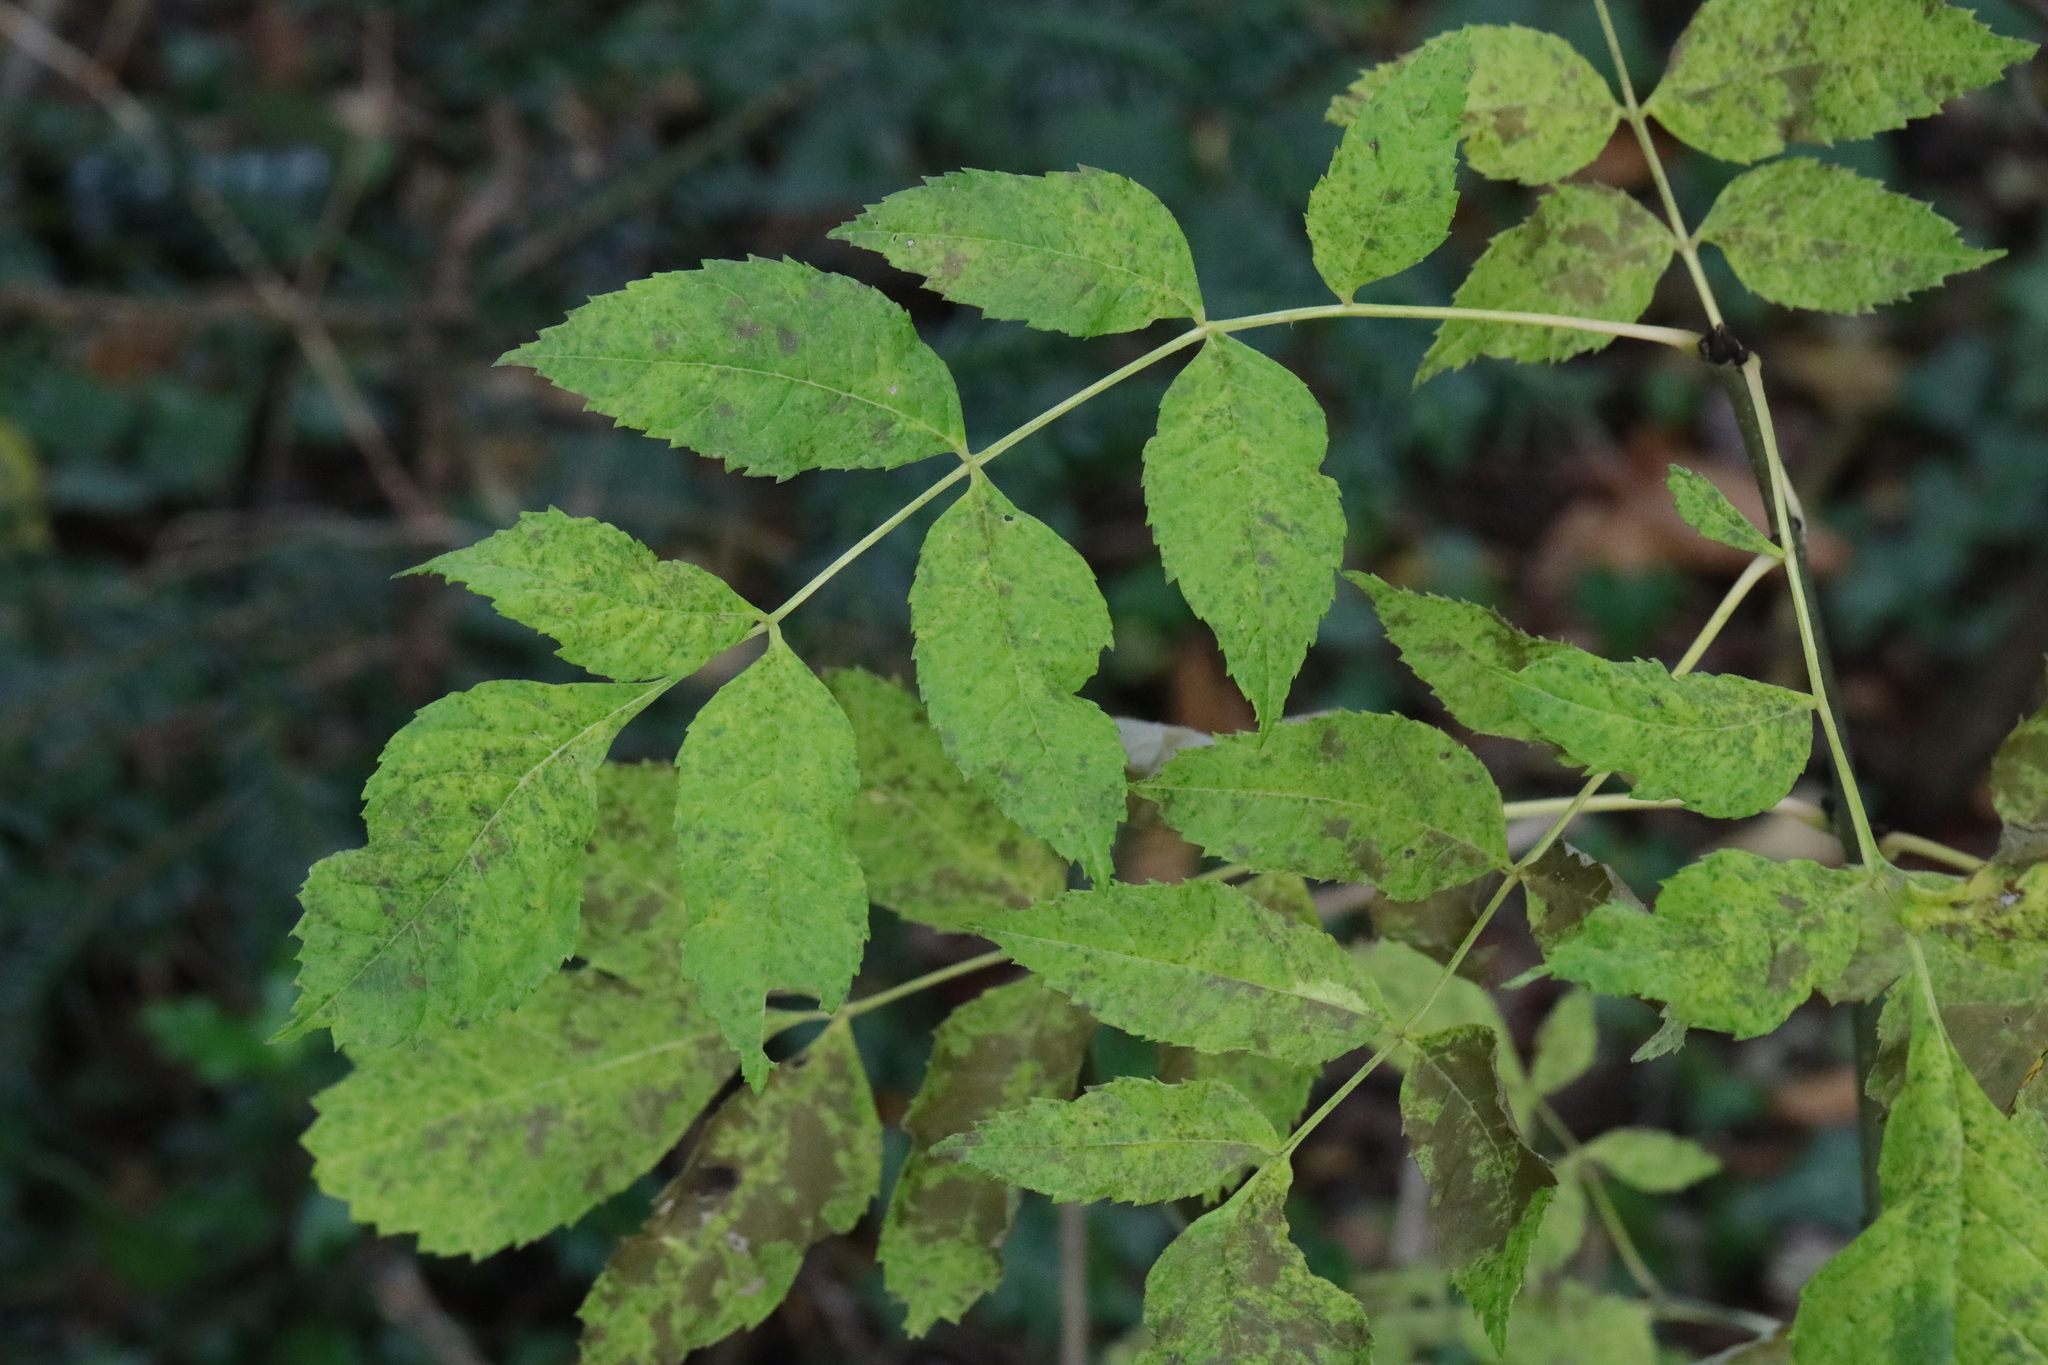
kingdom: Plantae
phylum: Tracheophyta
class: Magnoliopsida
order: Lamiales
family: Oleaceae
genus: Fraxinus
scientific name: Fraxinus excelsior
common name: European ash
